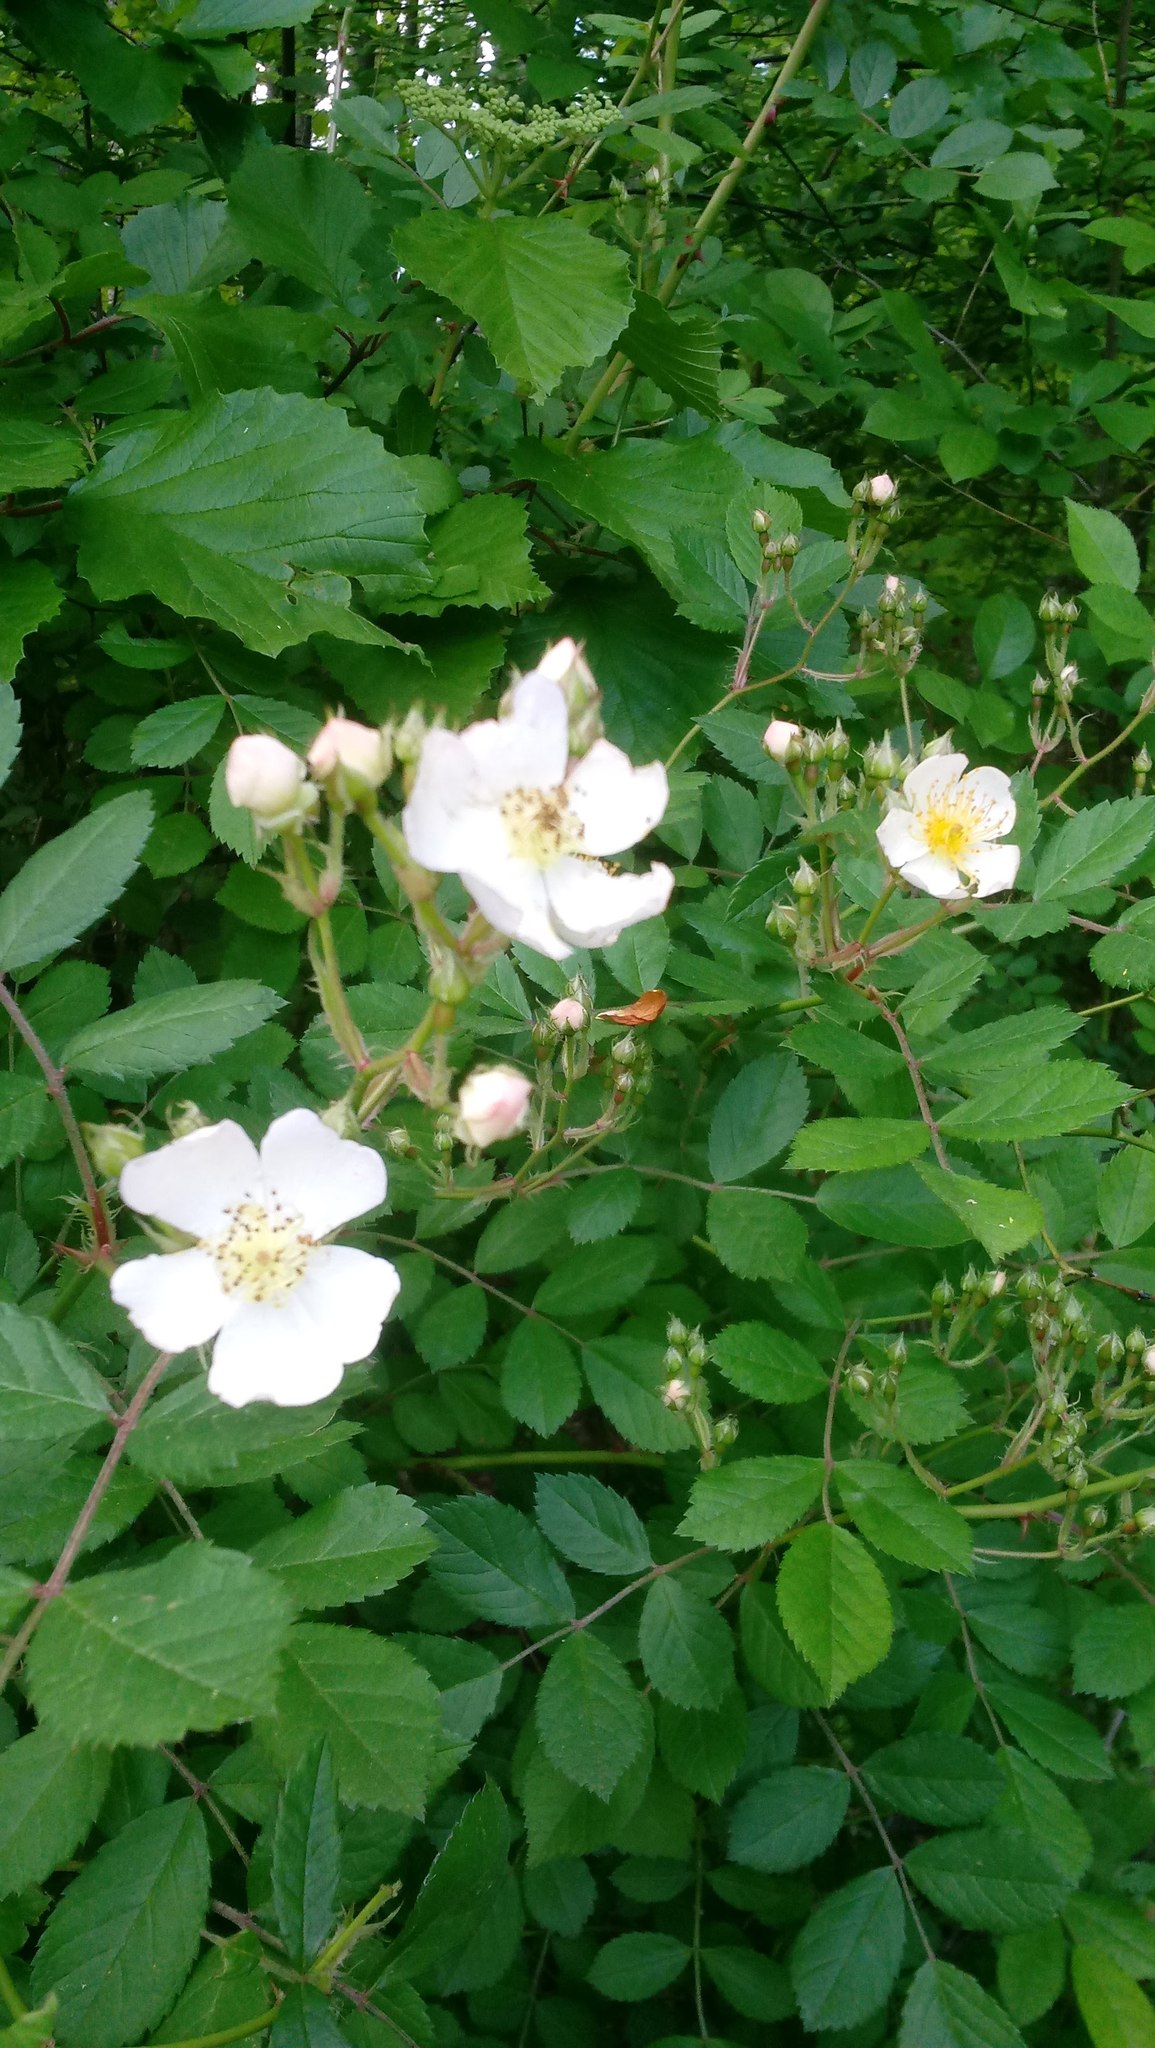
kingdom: Plantae
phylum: Tracheophyta
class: Magnoliopsida
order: Rosales
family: Rosaceae
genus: Rosa
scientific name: Rosa multiflora
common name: Multiflora rose
